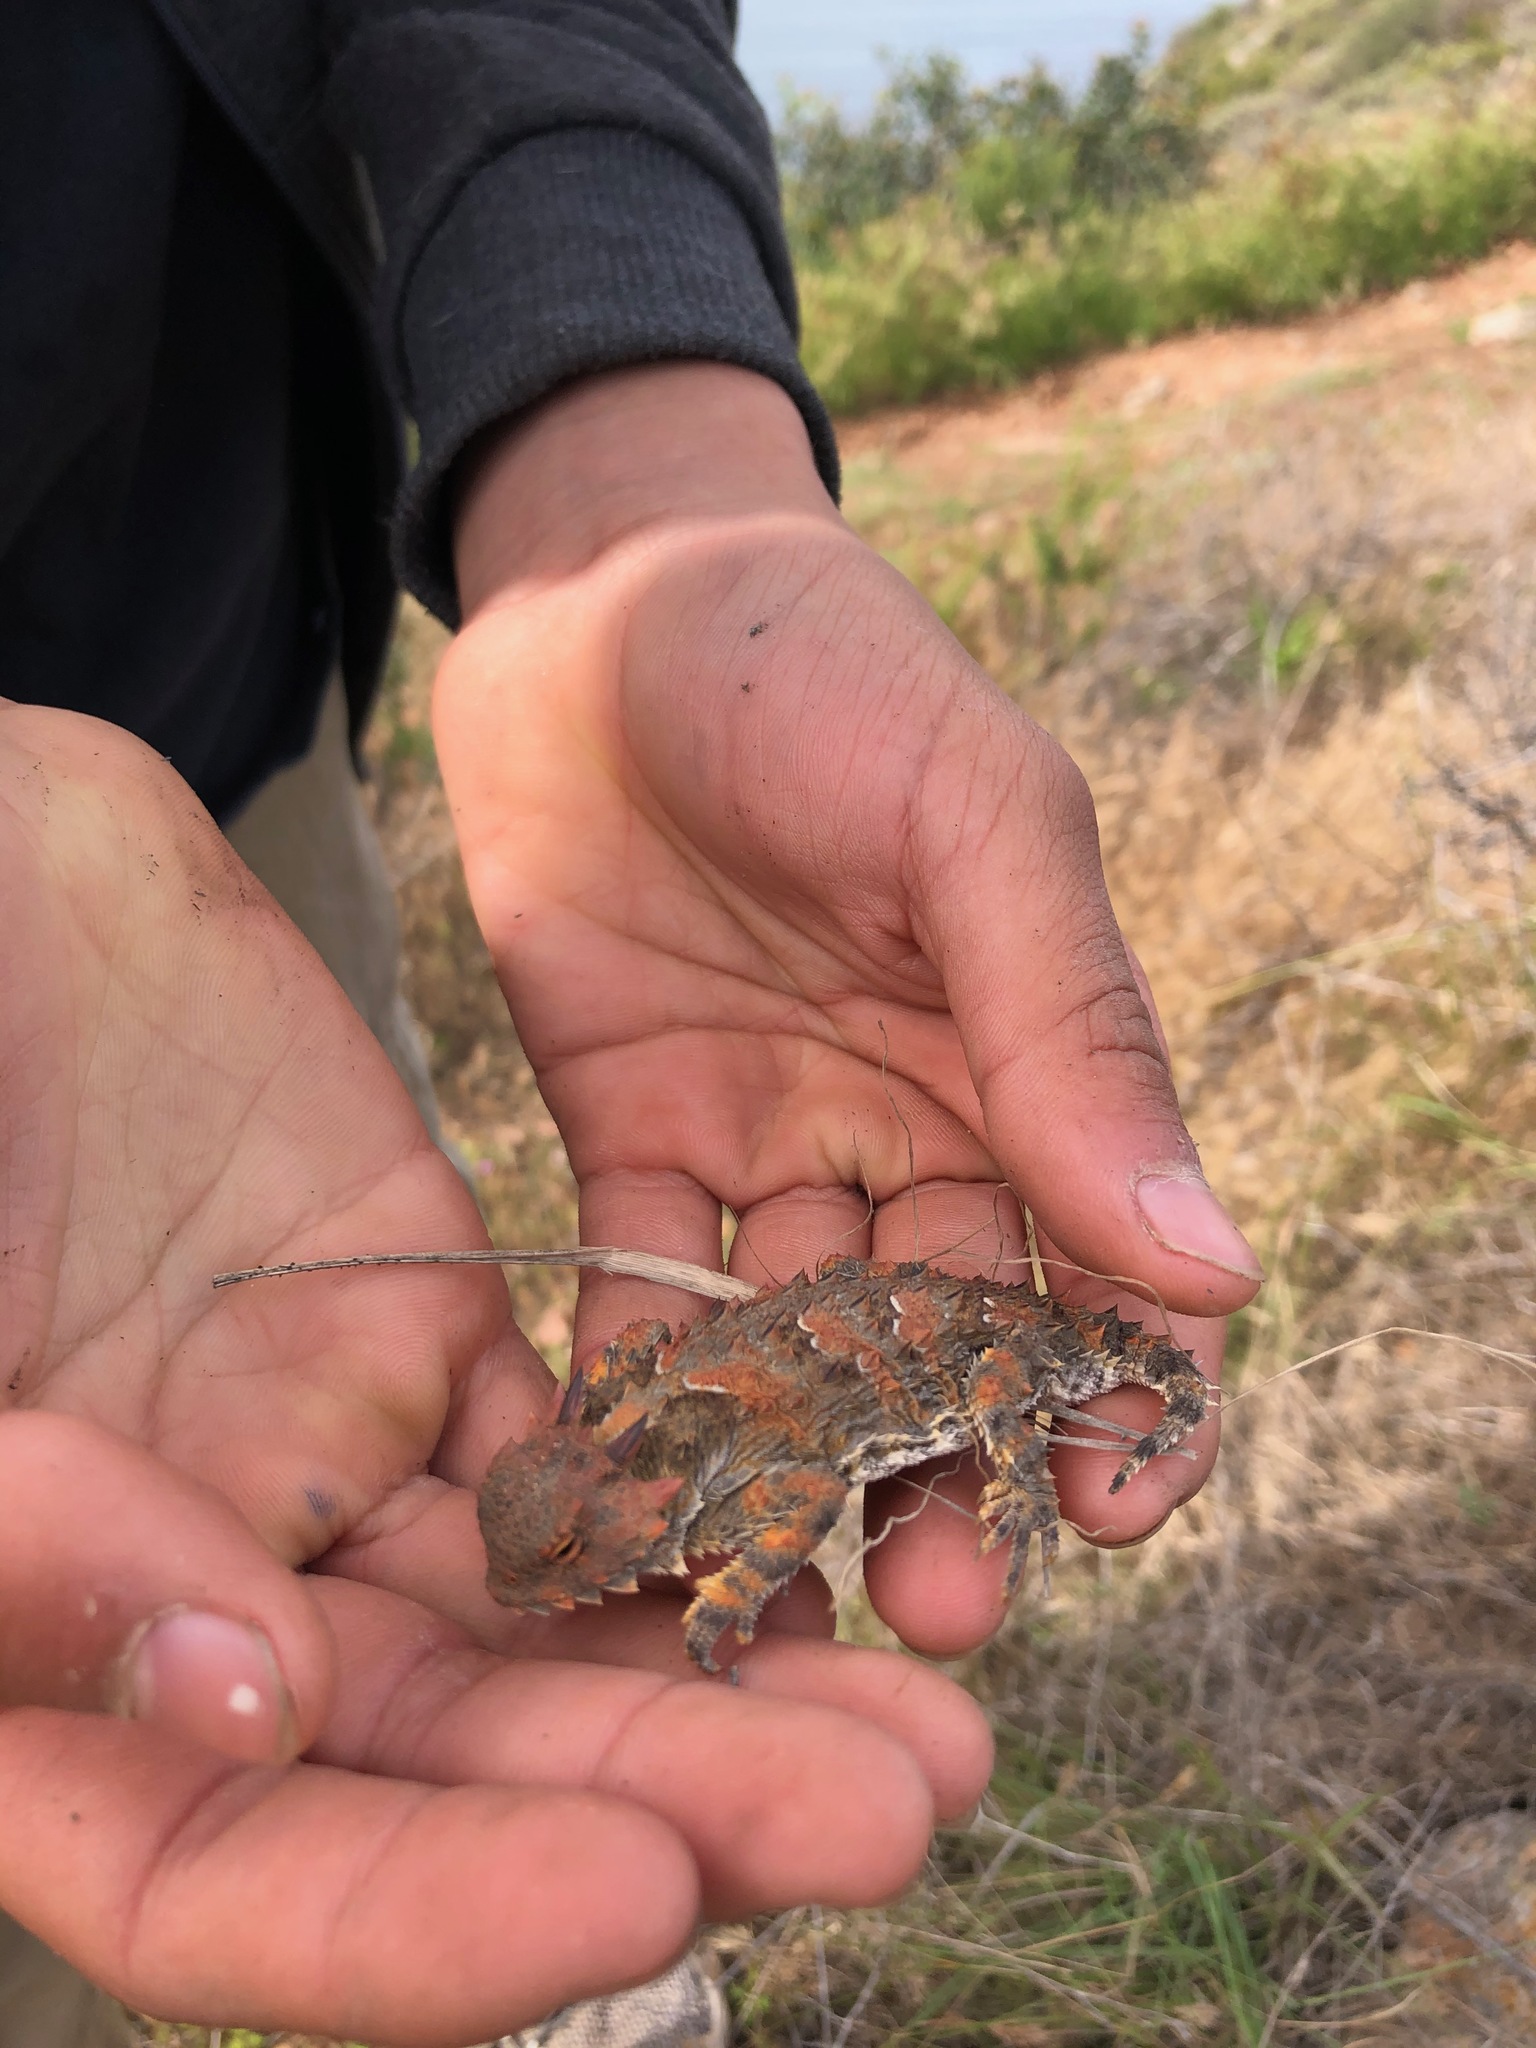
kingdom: Animalia
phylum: Chordata
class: Squamata
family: Phrynosomatidae
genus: Phrynosoma
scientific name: Phrynosoma blainvillii
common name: San diego horned lizard
